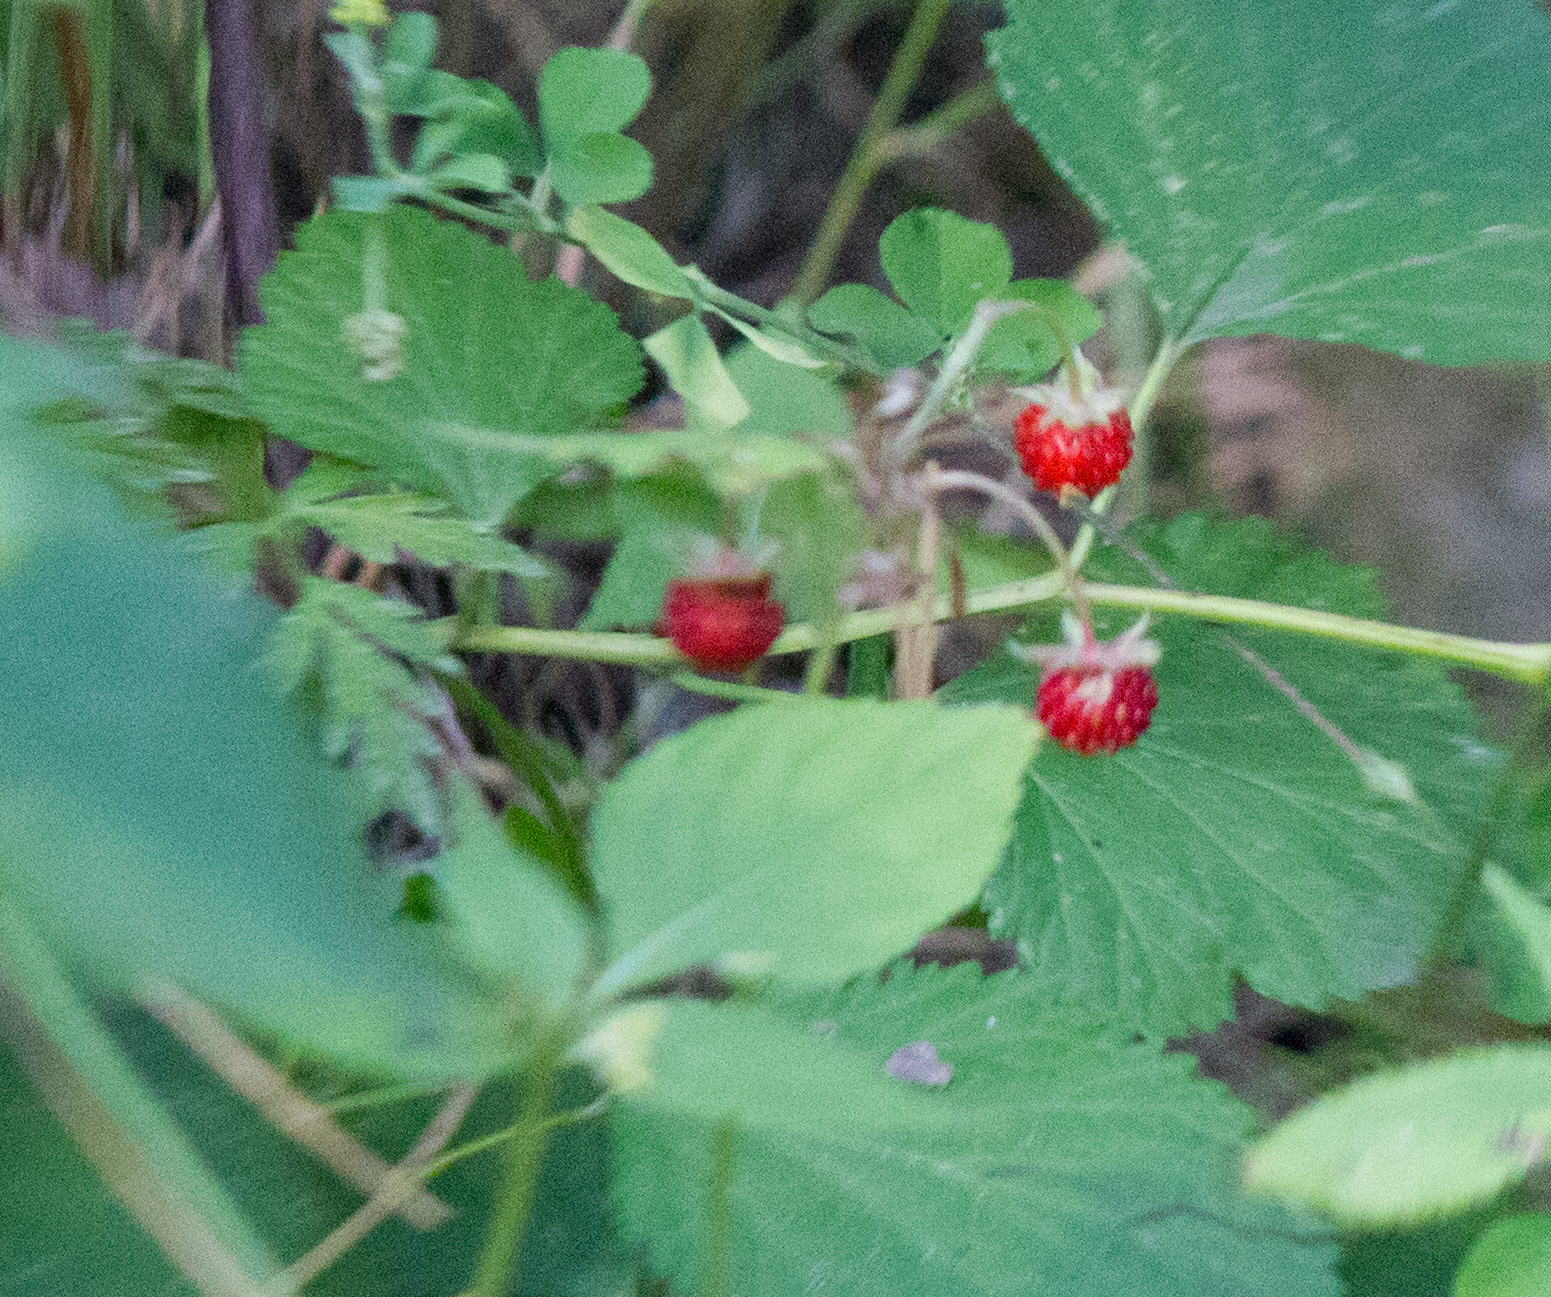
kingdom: Plantae
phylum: Tracheophyta
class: Magnoliopsida
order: Rosales
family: Rosaceae
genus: Fragaria
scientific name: Fragaria vesca
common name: Wild strawberry
